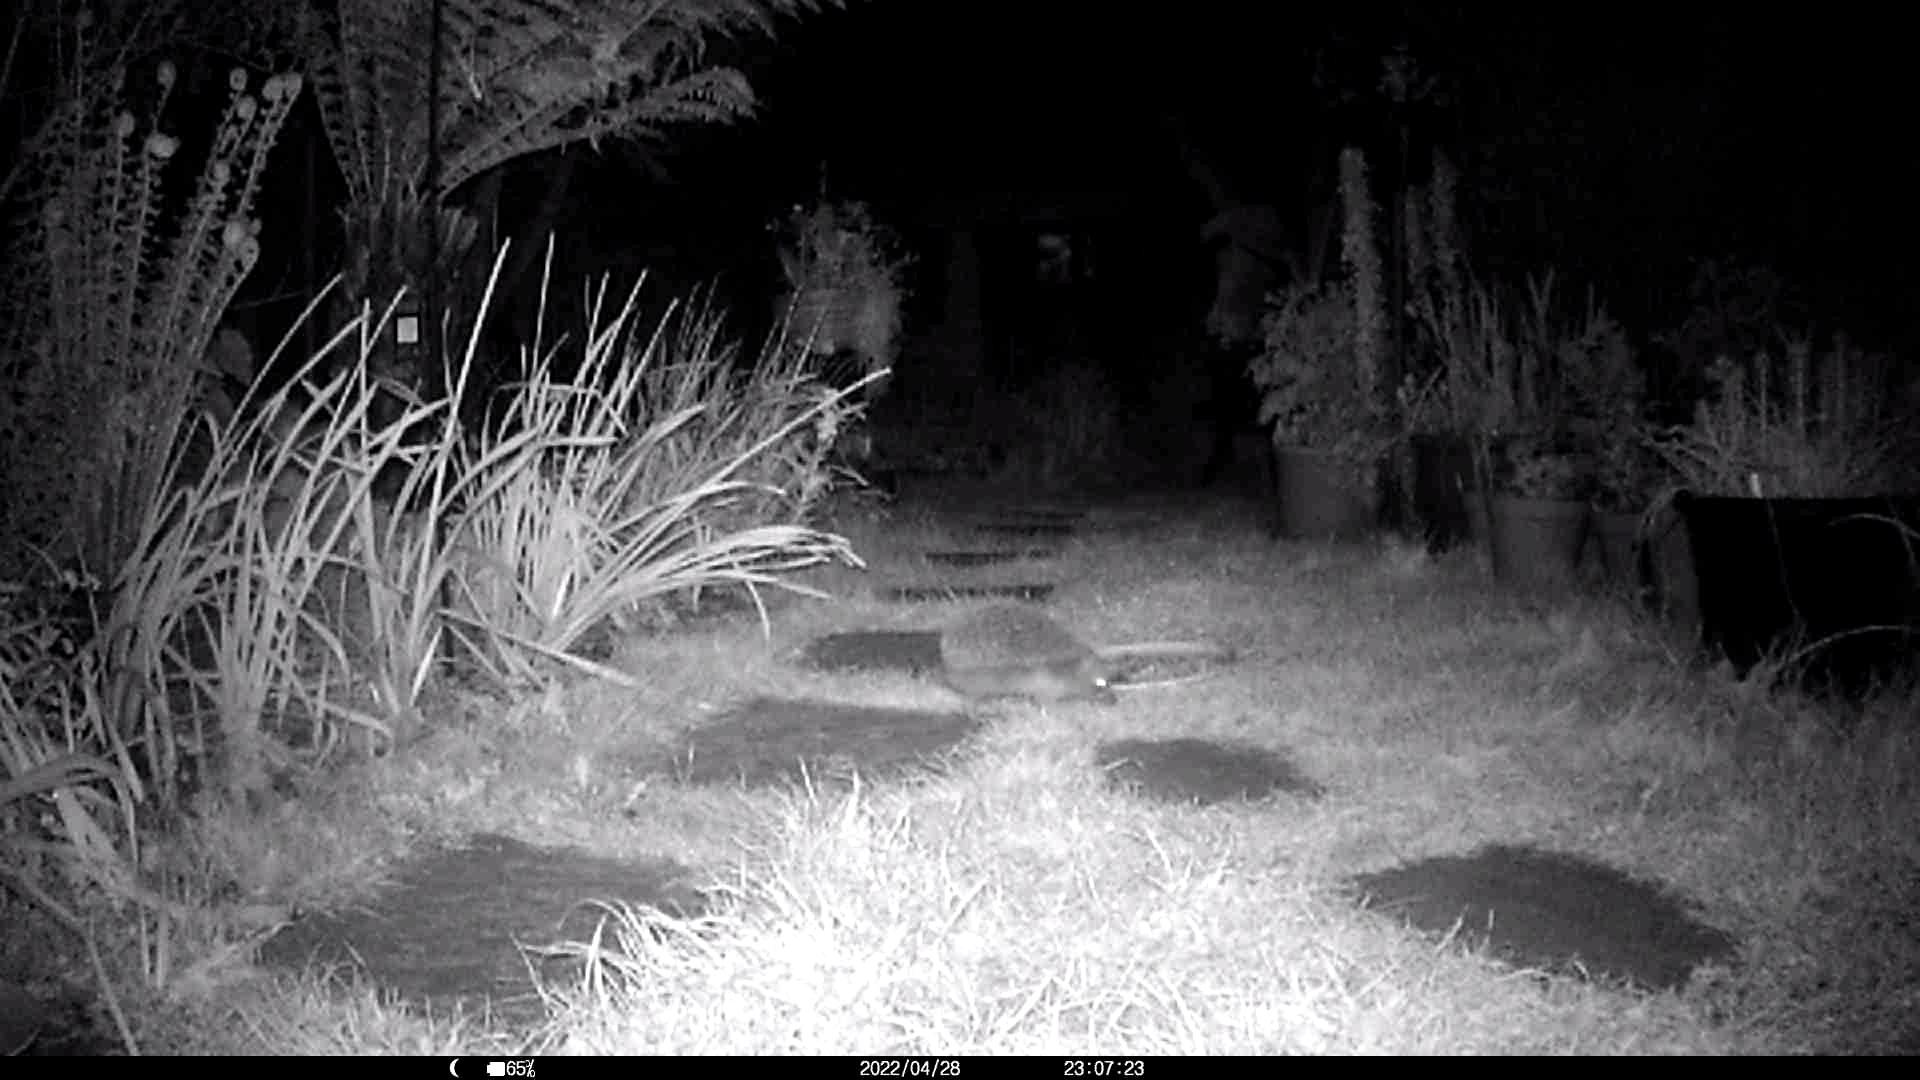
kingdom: Animalia
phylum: Chordata
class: Mammalia
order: Erinaceomorpha
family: Erinaceidae
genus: Erinaceus
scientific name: Erinaceus europaeus
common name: West european hedgehog
